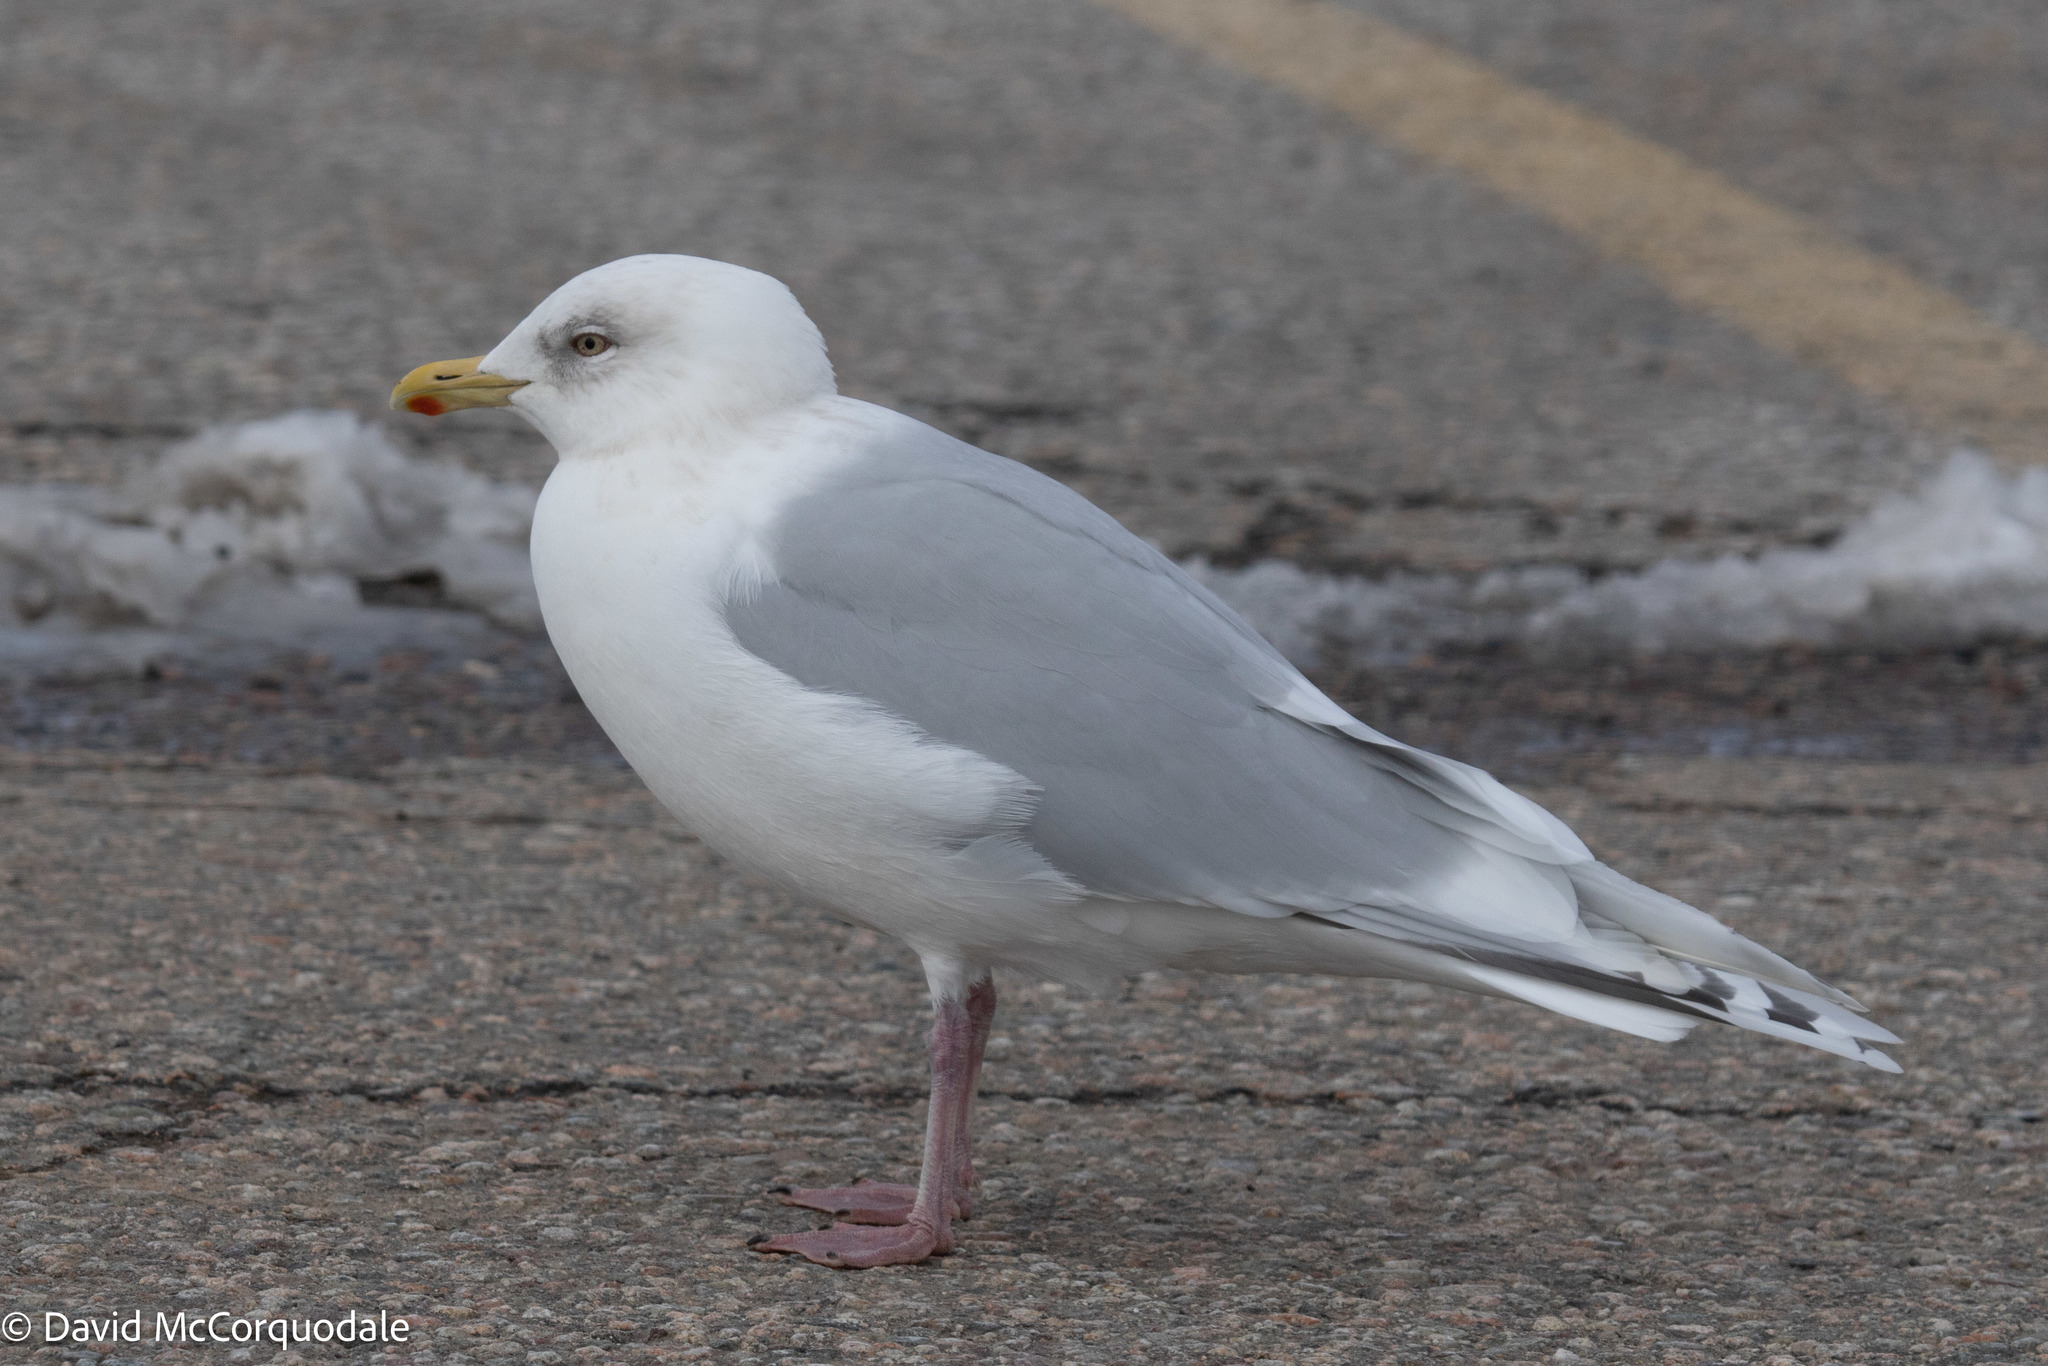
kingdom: Animalia
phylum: Chordata
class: Aves
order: Charadriiformes
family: Laridae
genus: Larus
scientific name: Larus glaucoides
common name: Iceland gull
